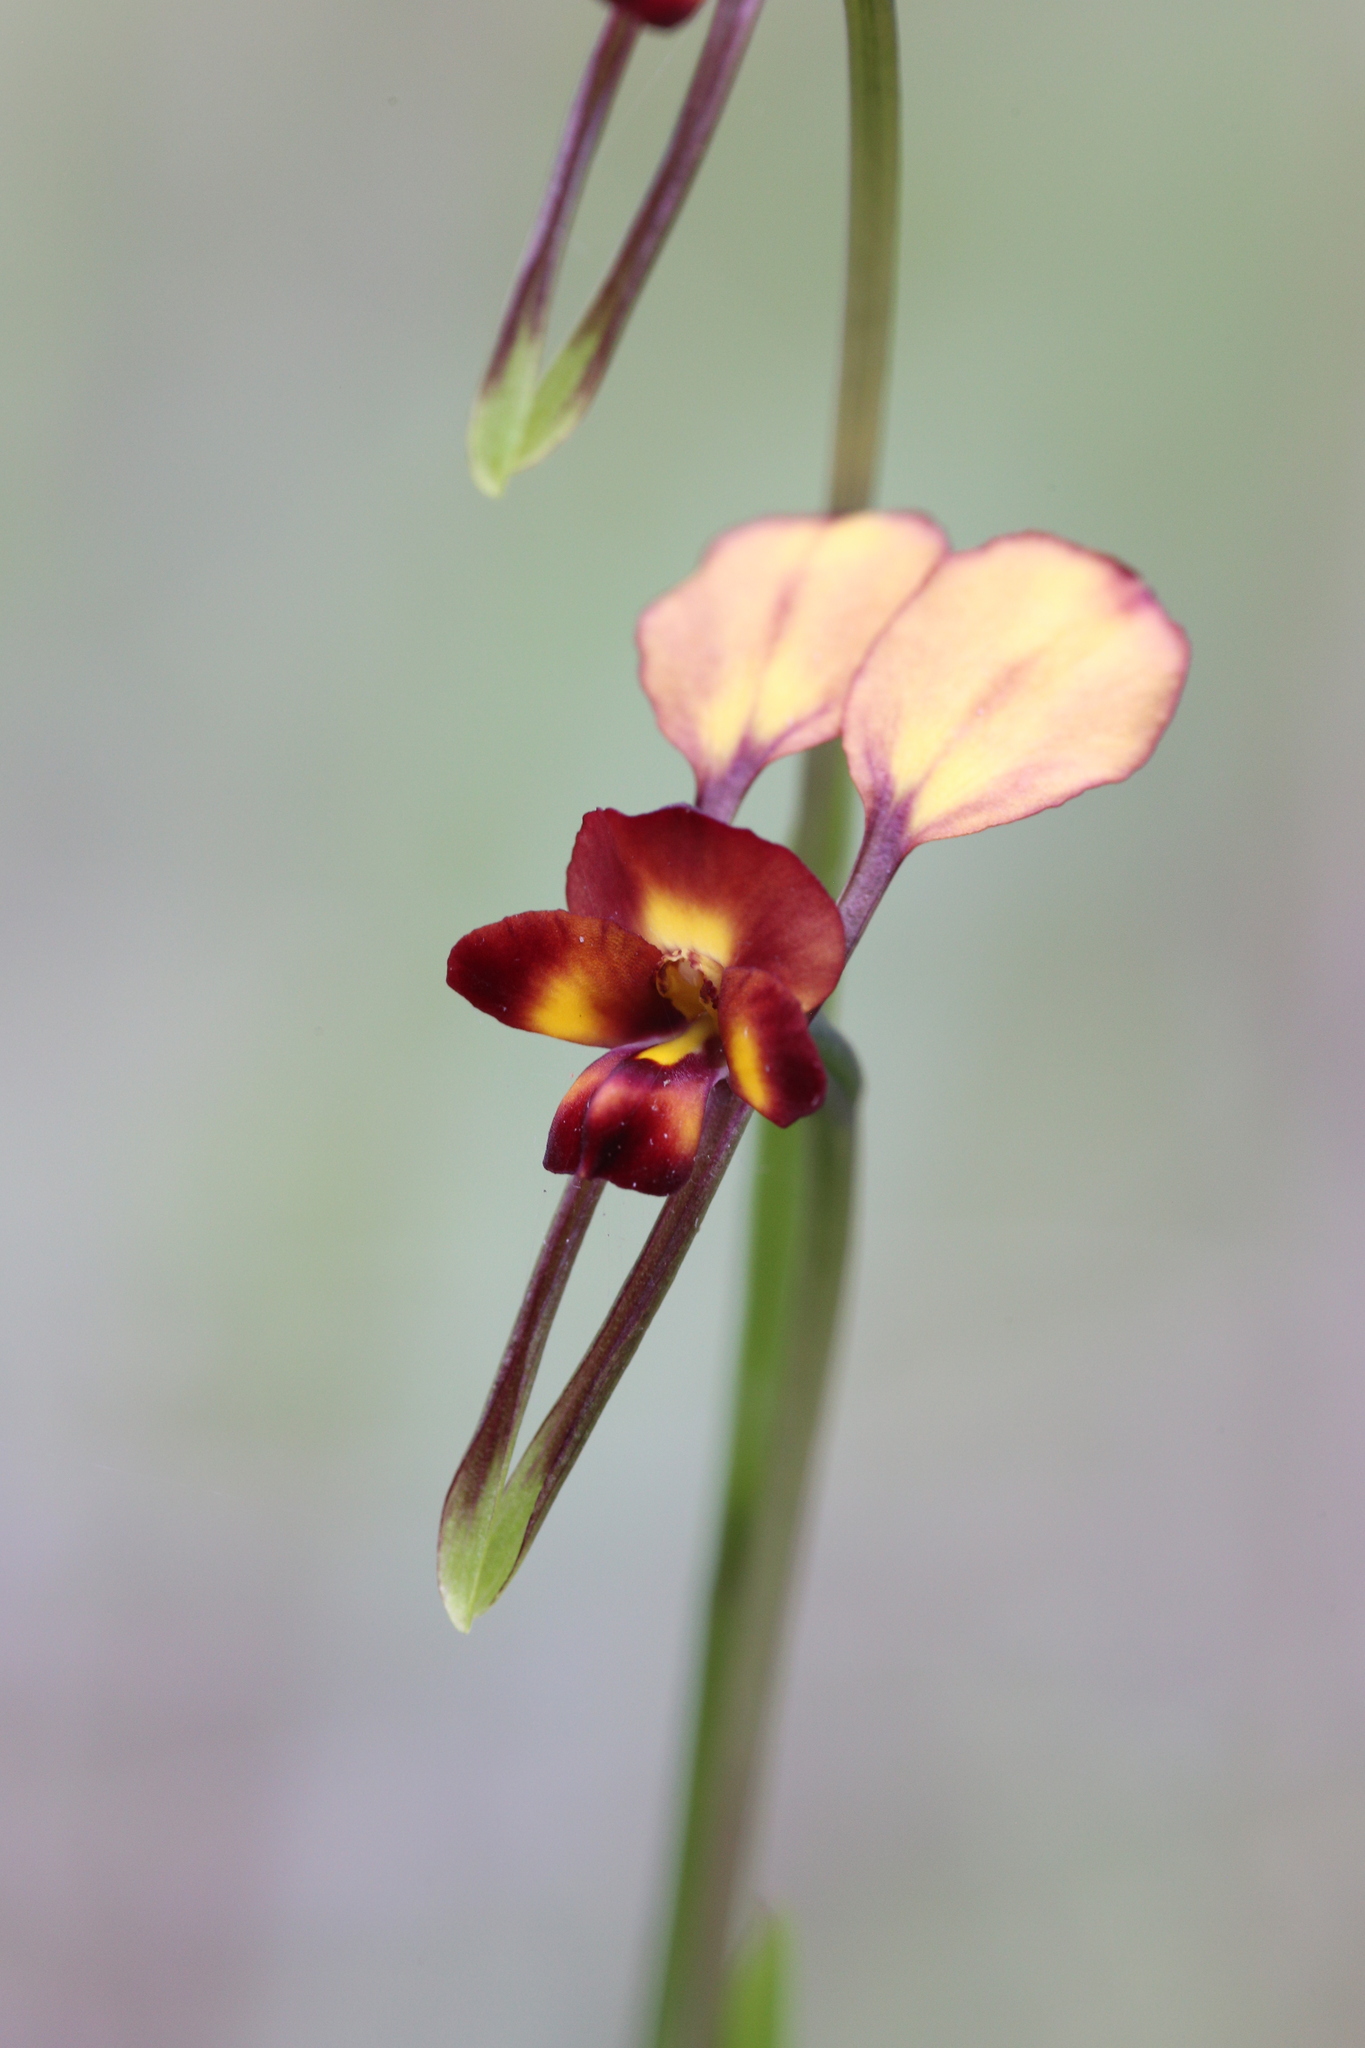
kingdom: Plantae
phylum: Tracheophyta
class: Liliopsida
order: Asparagales
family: Orchidaceae
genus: Diuris
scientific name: Diuris cruenta
